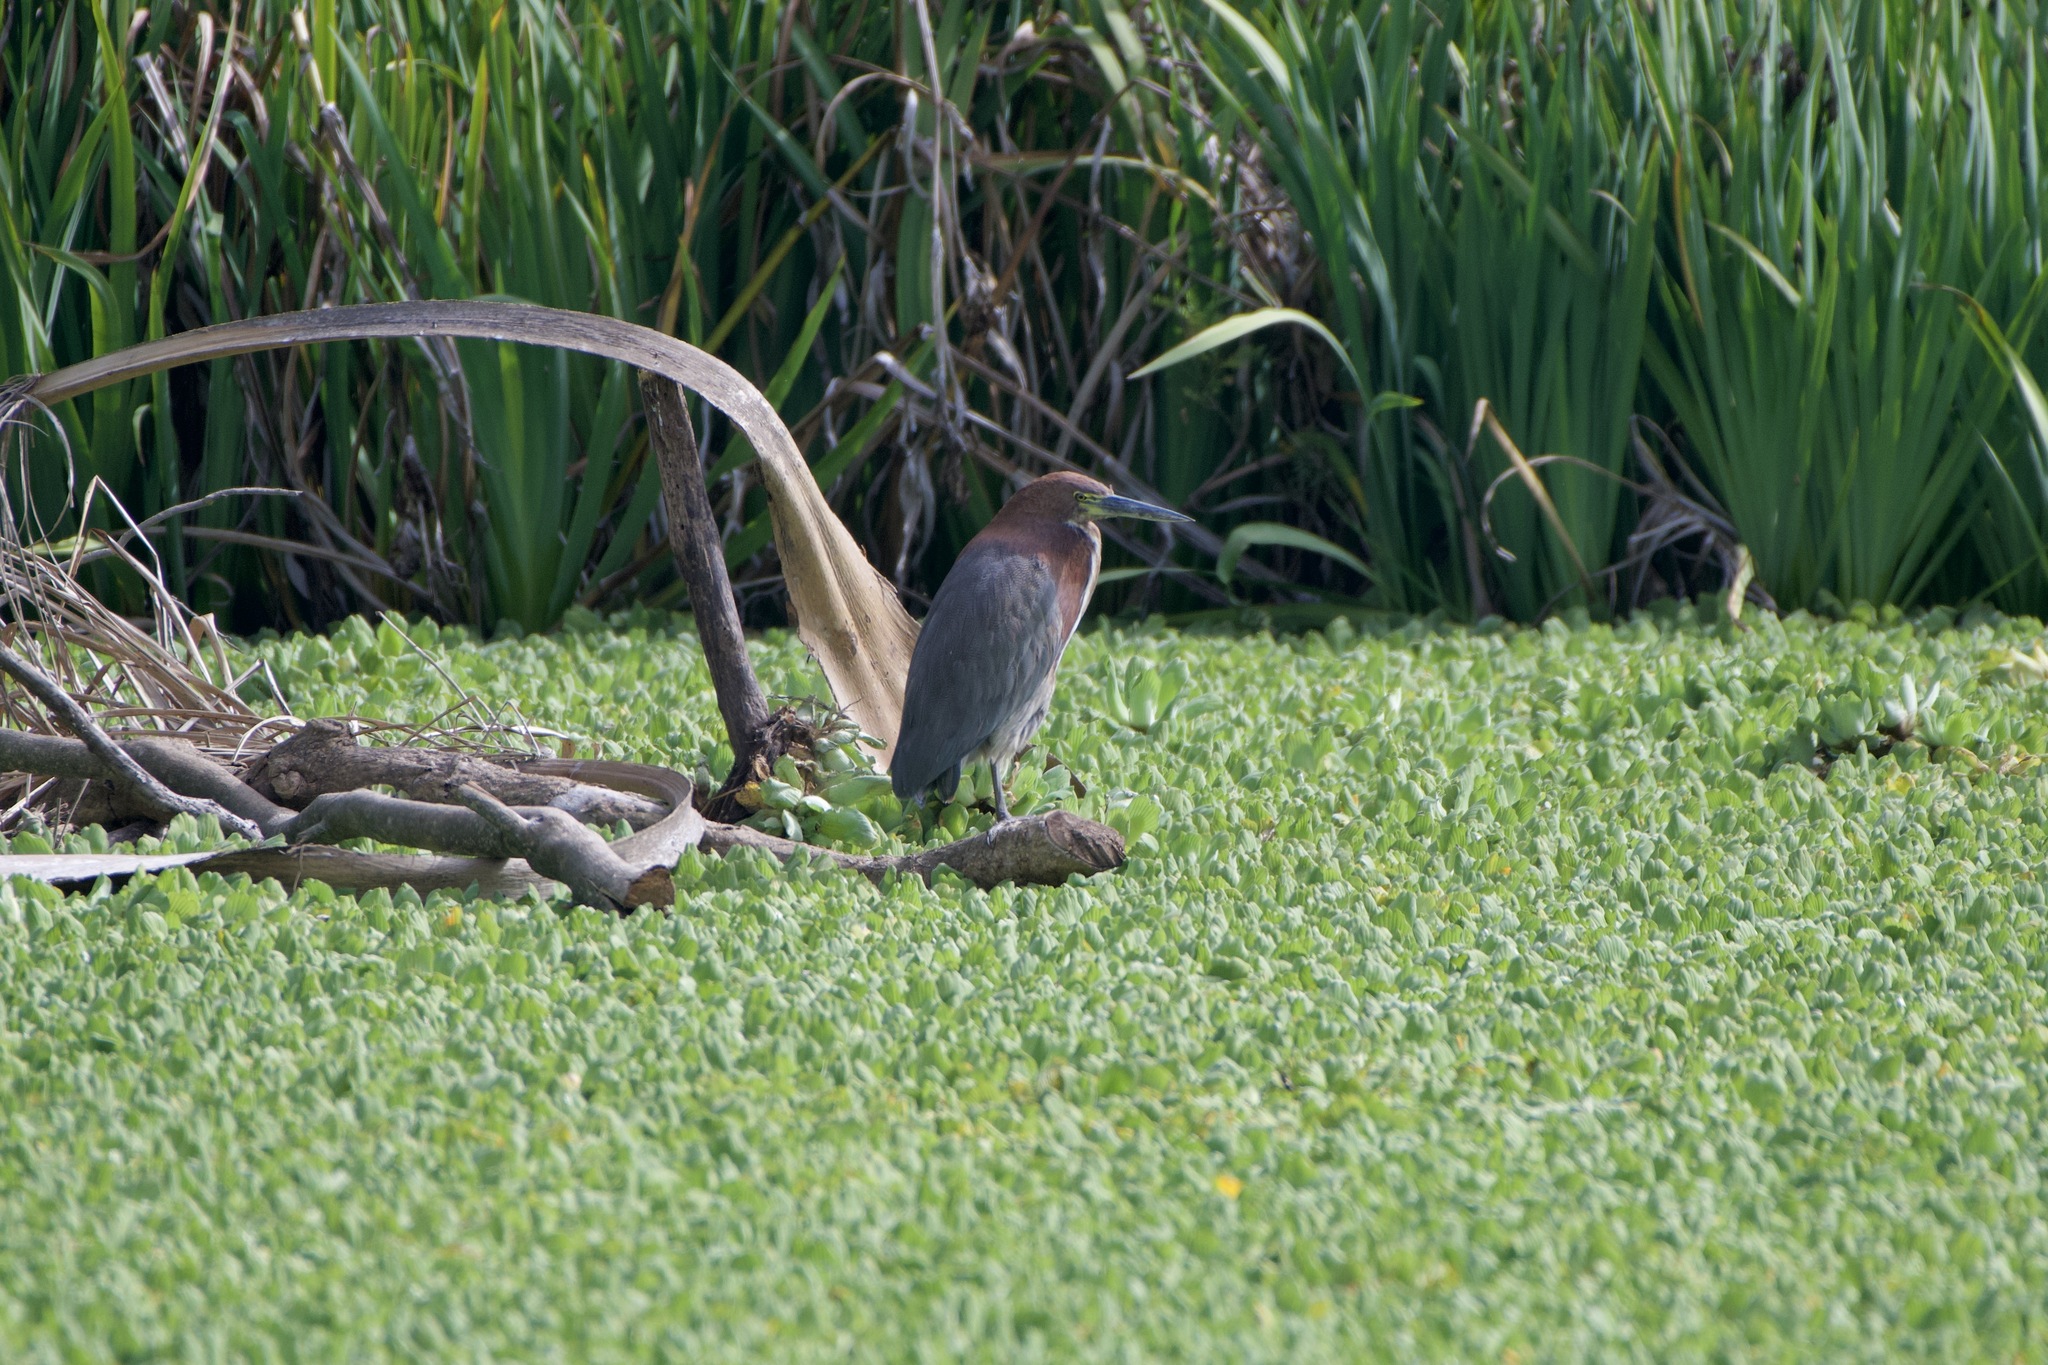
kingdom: Animalia
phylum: Chordata
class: Aves
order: Pelecaniformes
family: Ardeidae
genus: Tigrisoma
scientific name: Tigrisoma lineatum
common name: Rufescent tiger-heron
